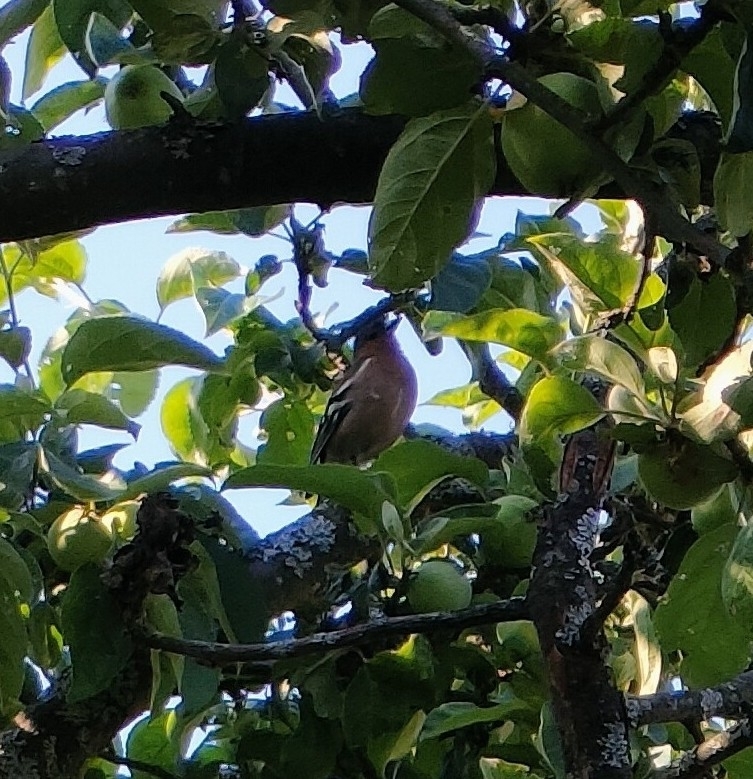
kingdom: Animalia
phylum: Chordata
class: Aves
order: Passeriformes
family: Fringillidae
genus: Fringilla
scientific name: Fringilla coelebs
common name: Common chaffinch
